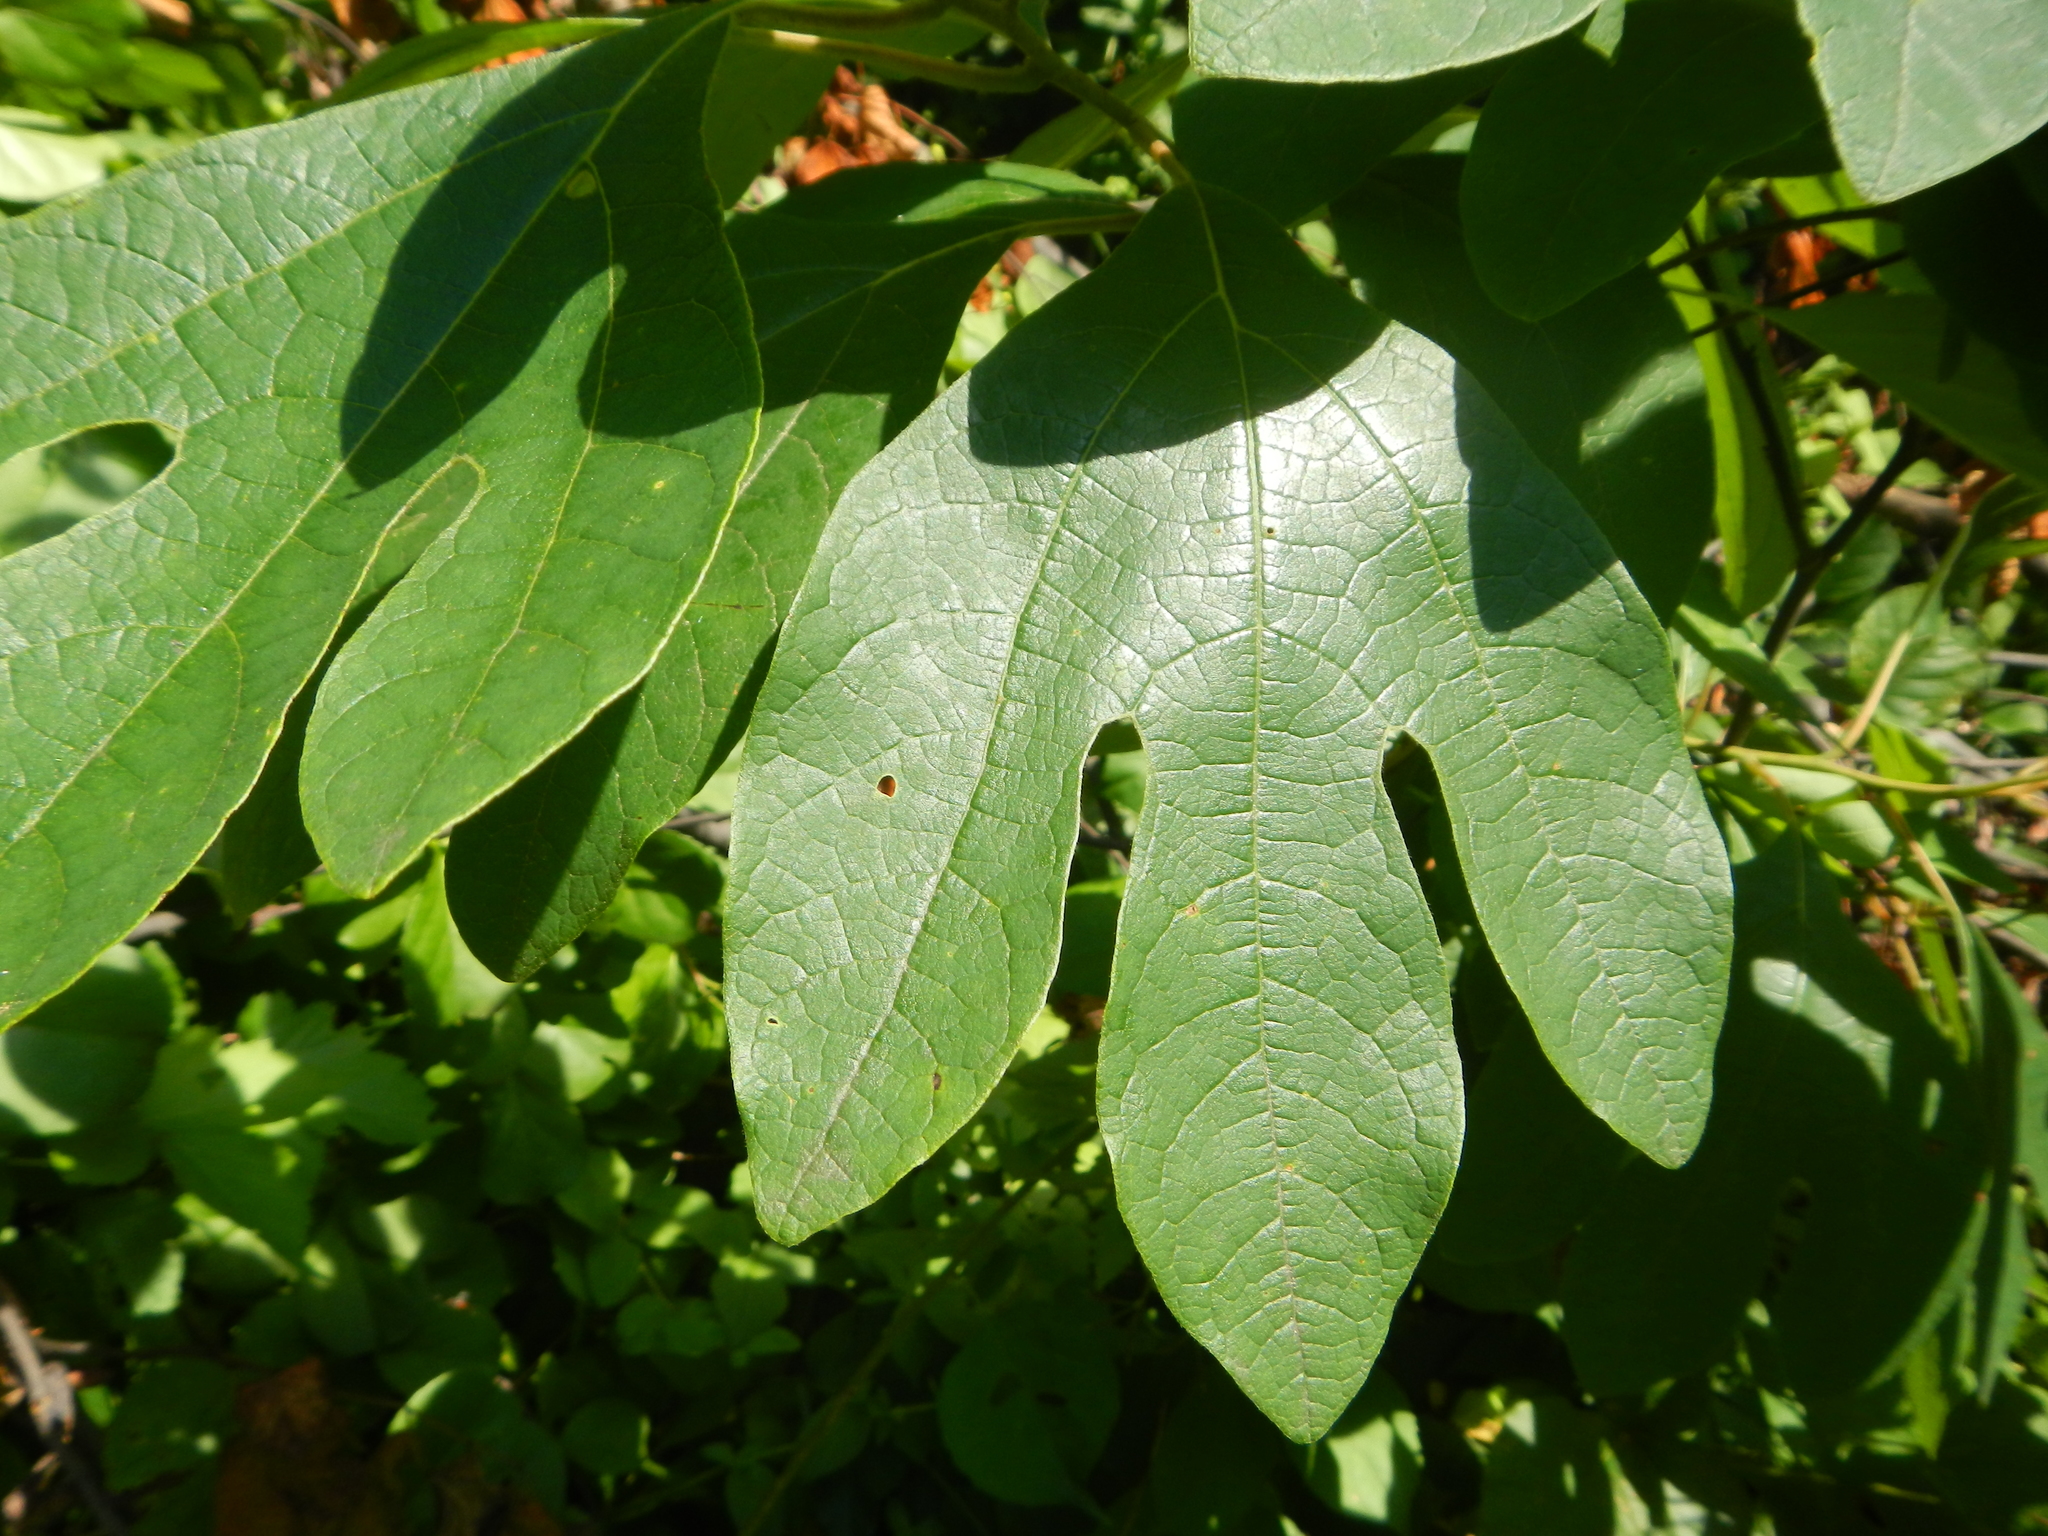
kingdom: Plantae
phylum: Tracheophyta
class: Magnoliopsida
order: Laurales
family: Lauraceae
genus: Sassafras
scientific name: Sassafras albidum
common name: Sassafras
